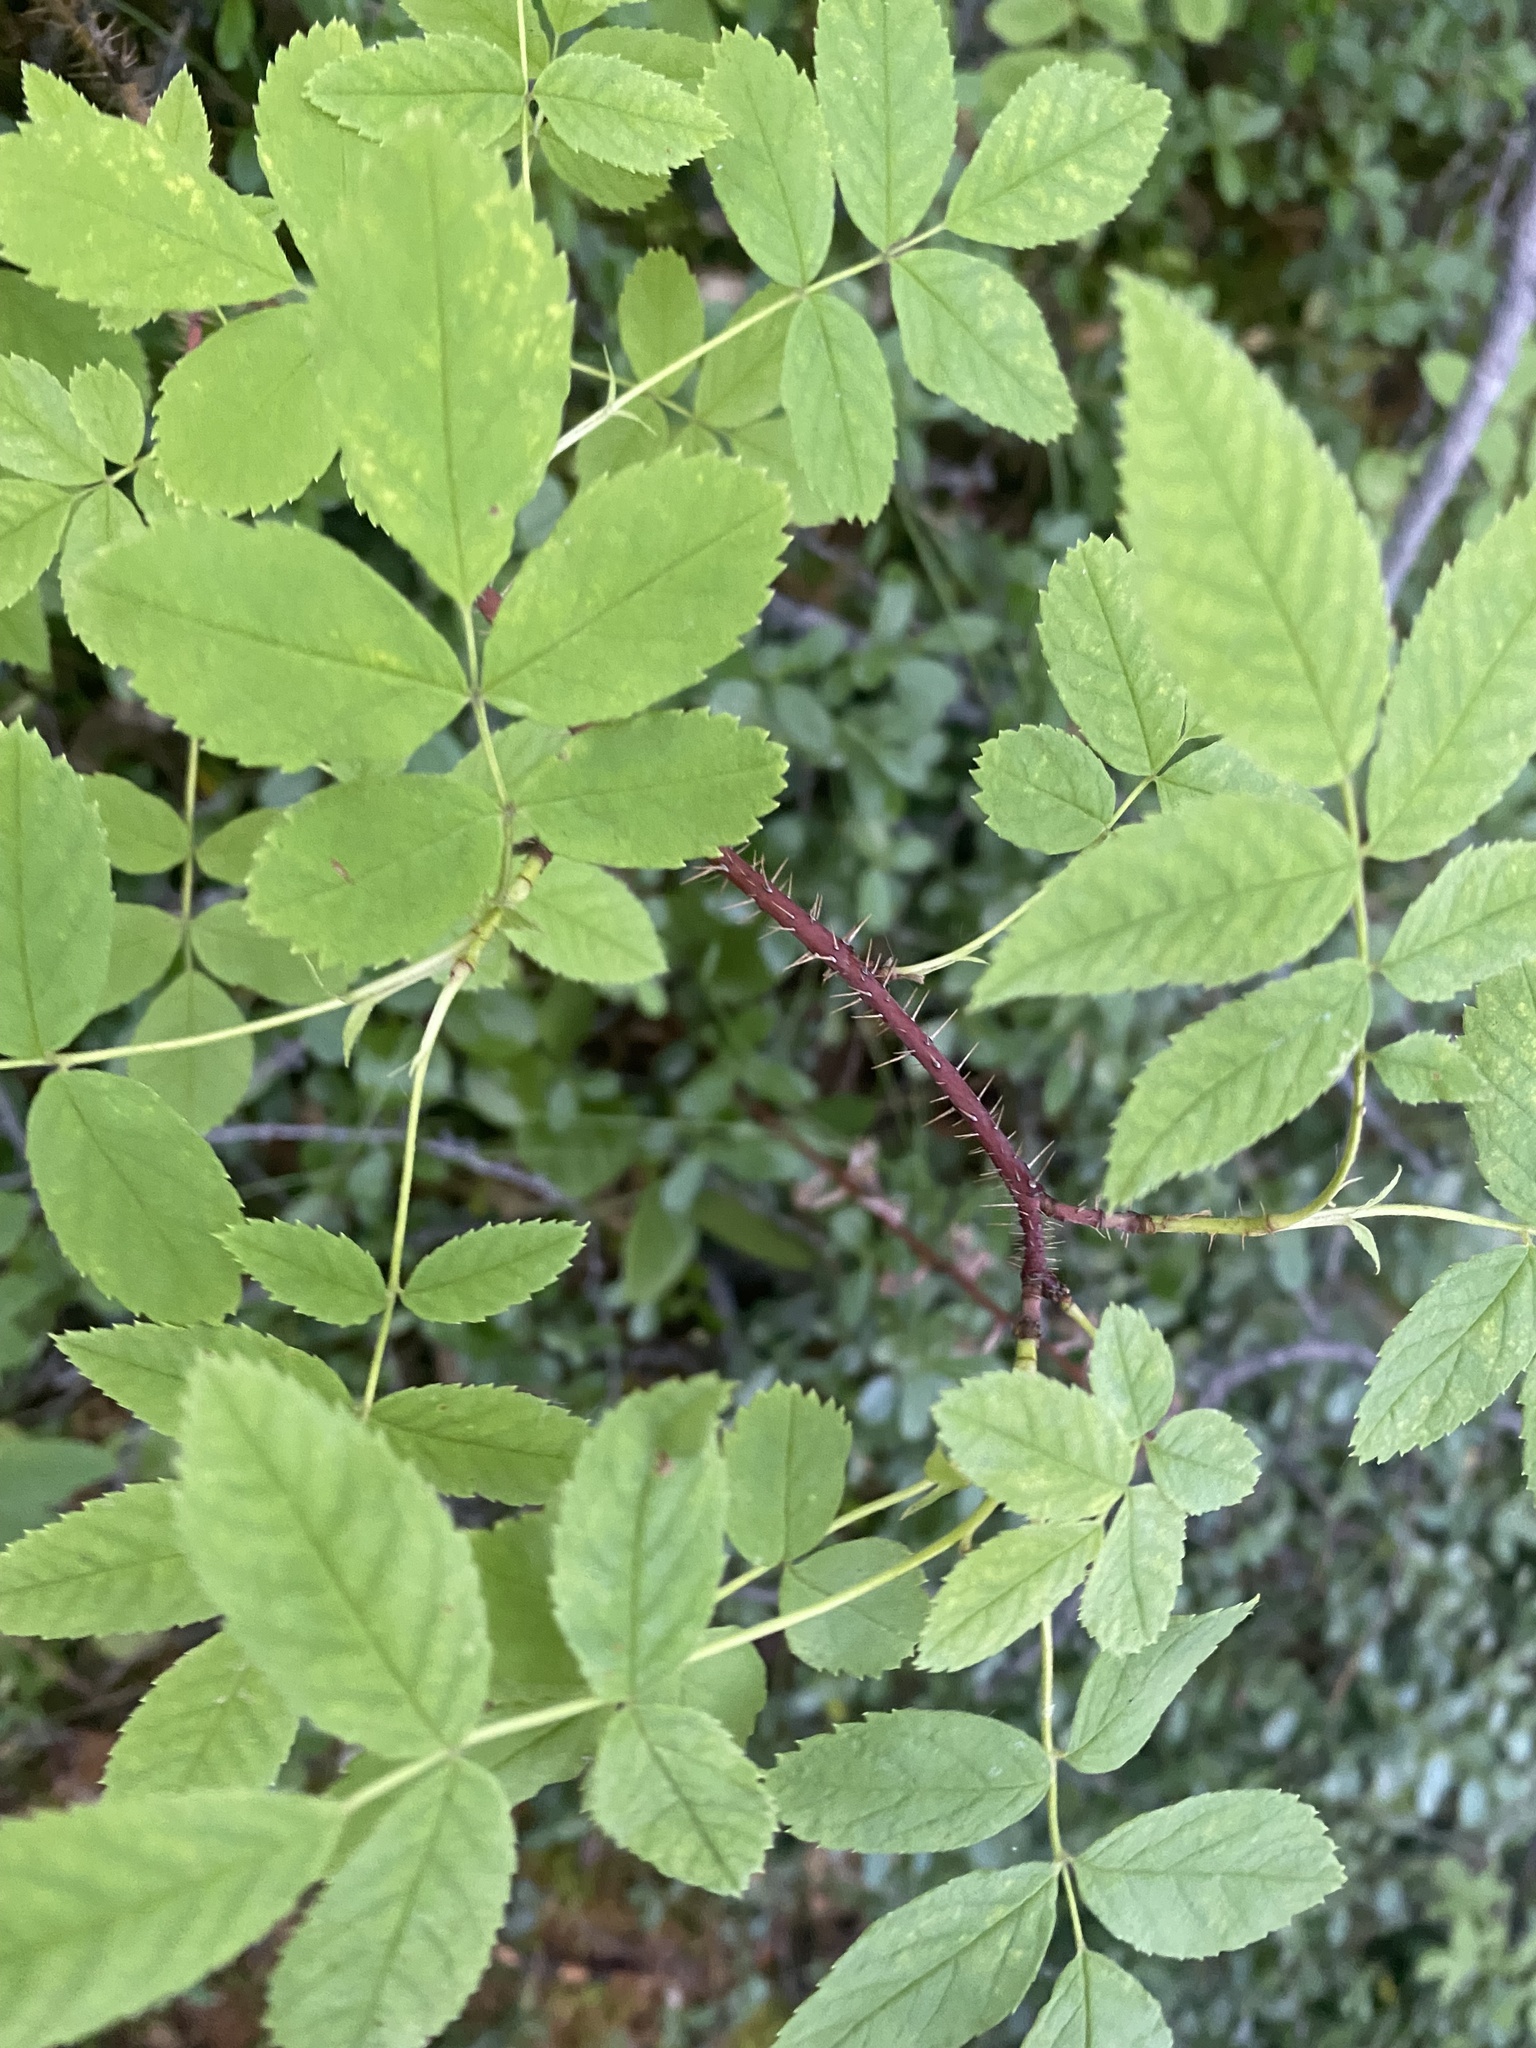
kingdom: Plantae
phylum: Tracheophyta
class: Magnoliopsida
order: Rosales
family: Rosaceae
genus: Rosa
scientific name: Rosa acicularis
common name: Prickly rose
